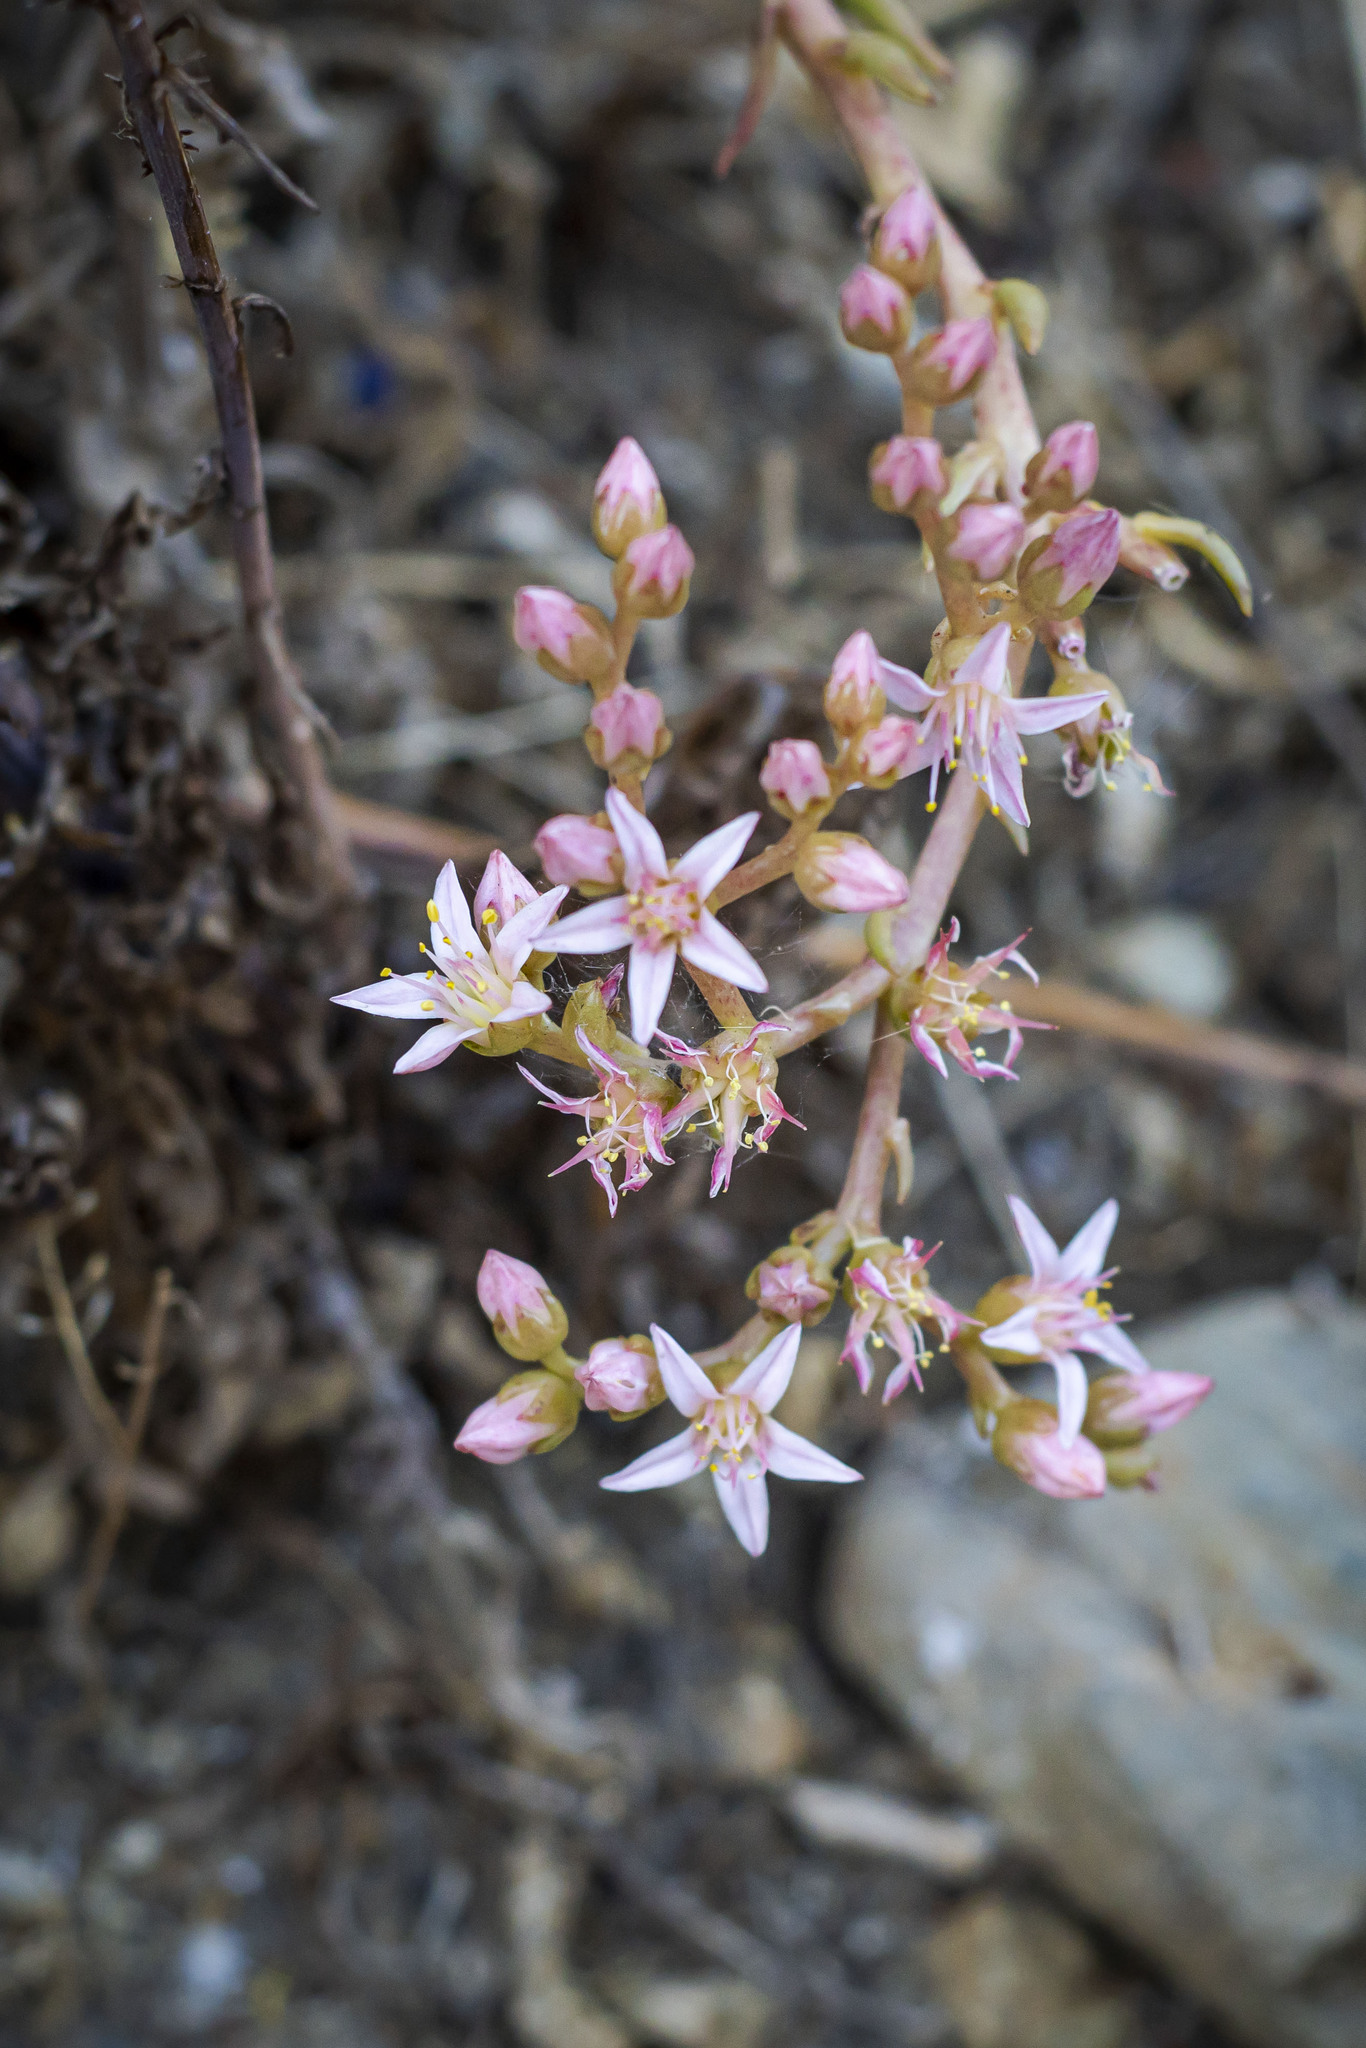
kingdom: Plantae
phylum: Tracheophyta
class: Magnoliopsida
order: Saxifragales
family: Crassulaceae
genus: Dudleya
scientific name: Dudleya viscida
